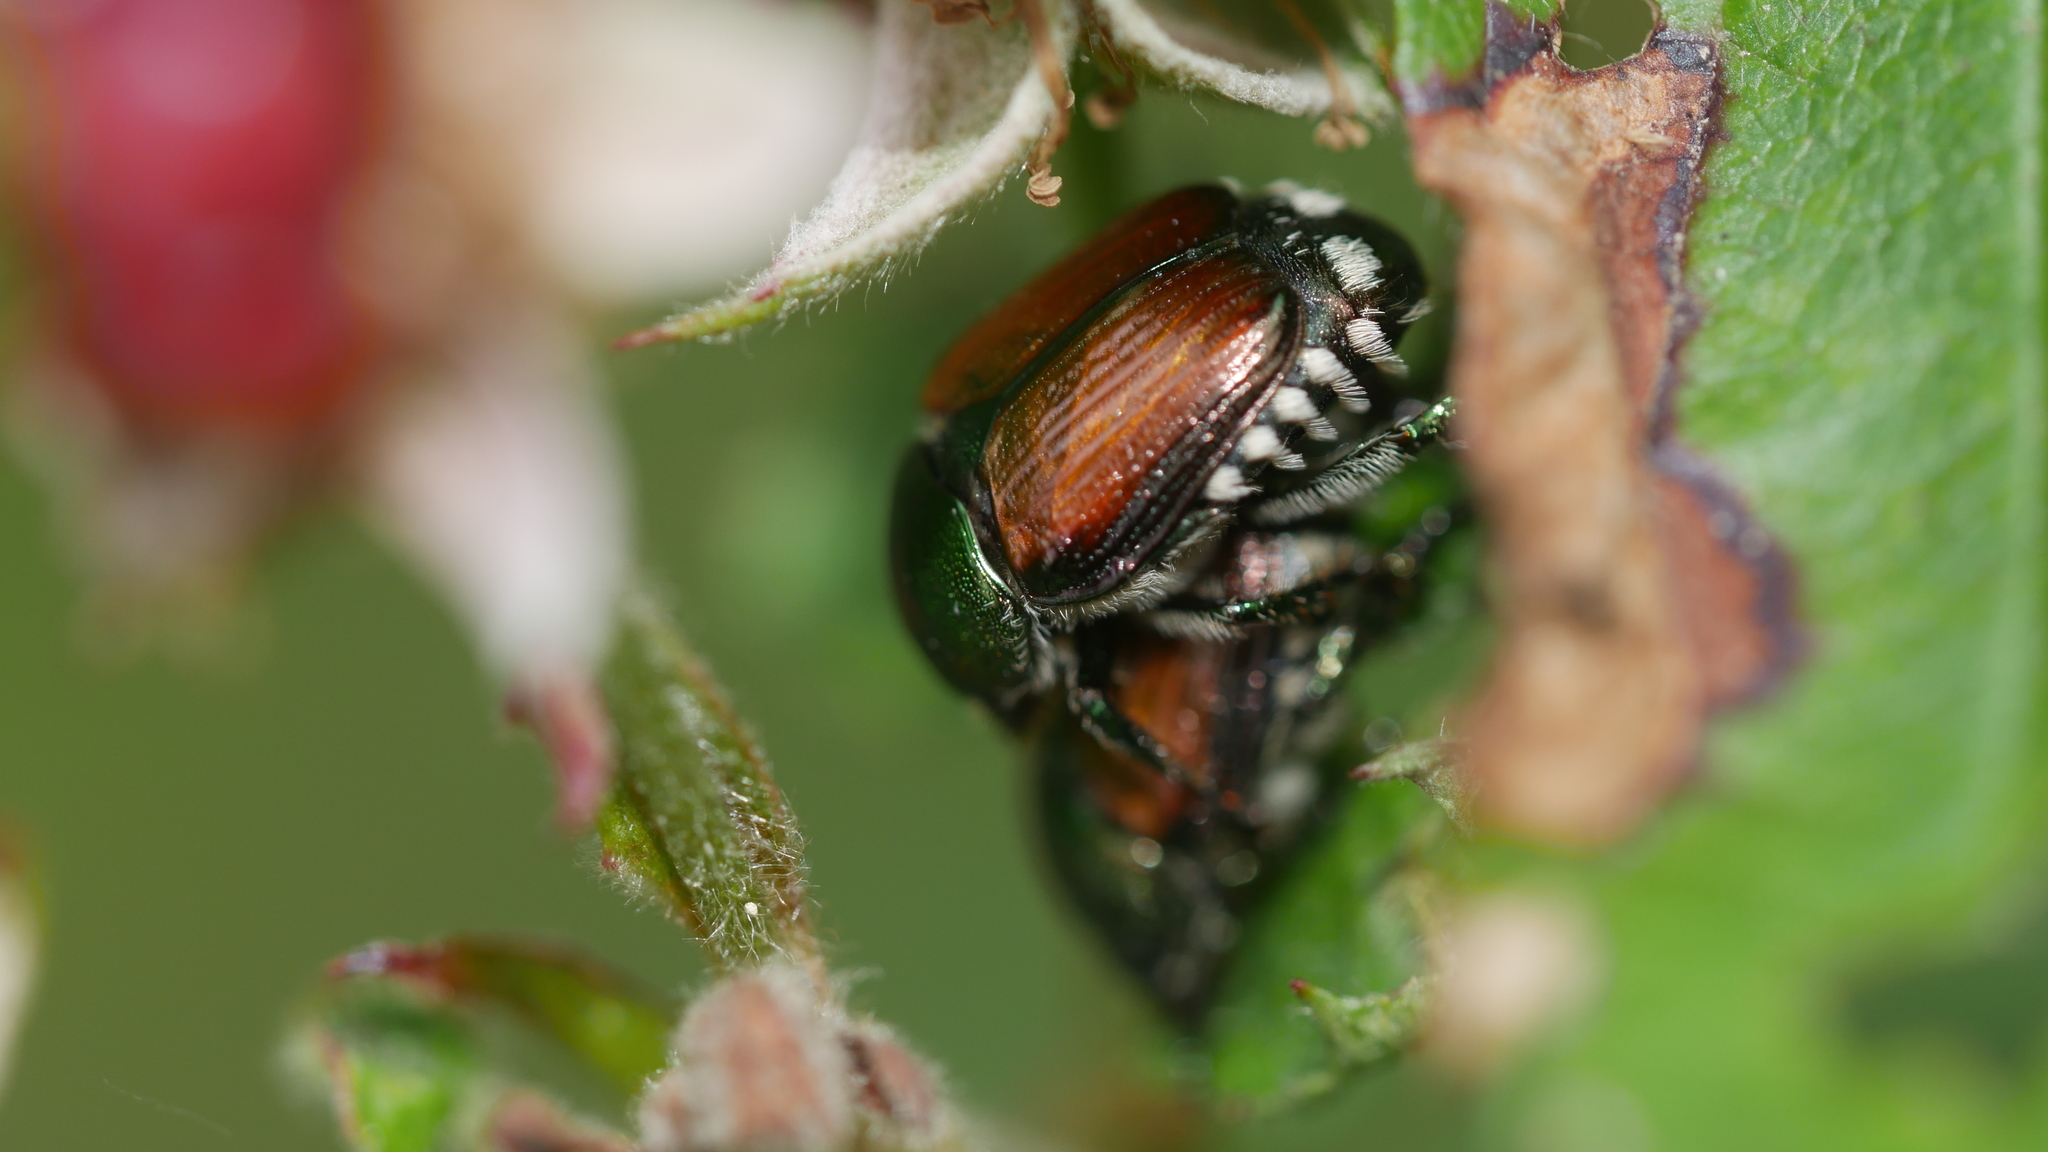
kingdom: Animalia
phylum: Arthropoda
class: Insecta
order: Coleoptera
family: Scarabaeidae
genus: Popillia
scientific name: Popillia japonica
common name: Japanese beetle
